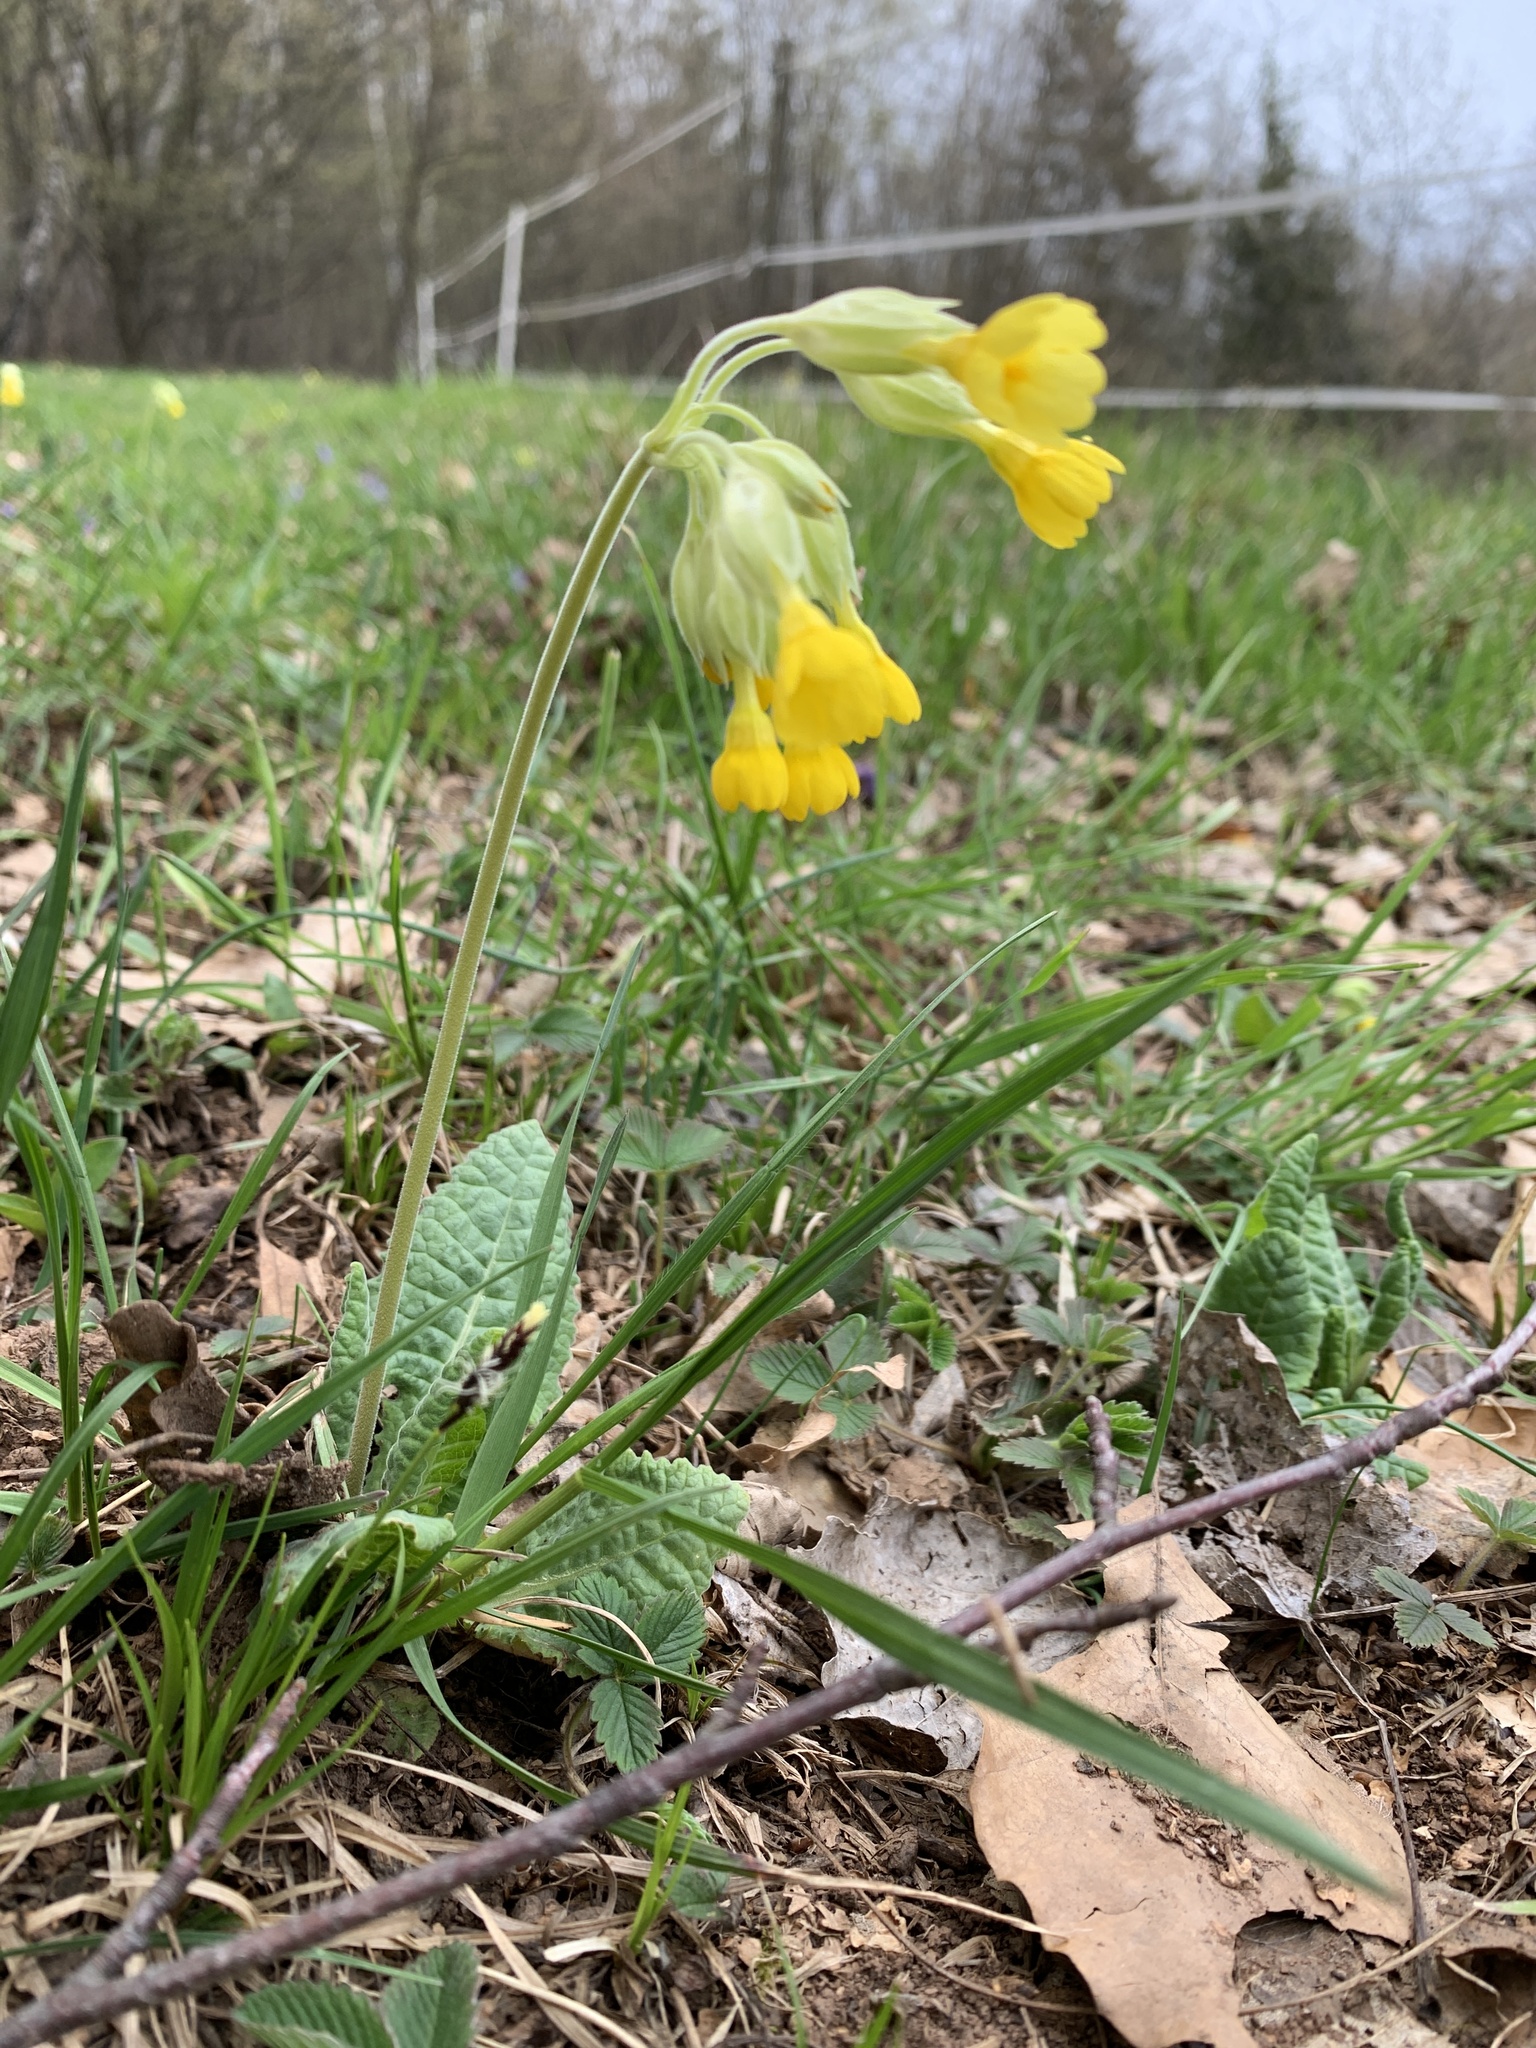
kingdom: Plantae
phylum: Tracheophyta
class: Magnoliopsida
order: Ericales
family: Primulaceae
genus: Primula
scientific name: Primula veris
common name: Cowslip
